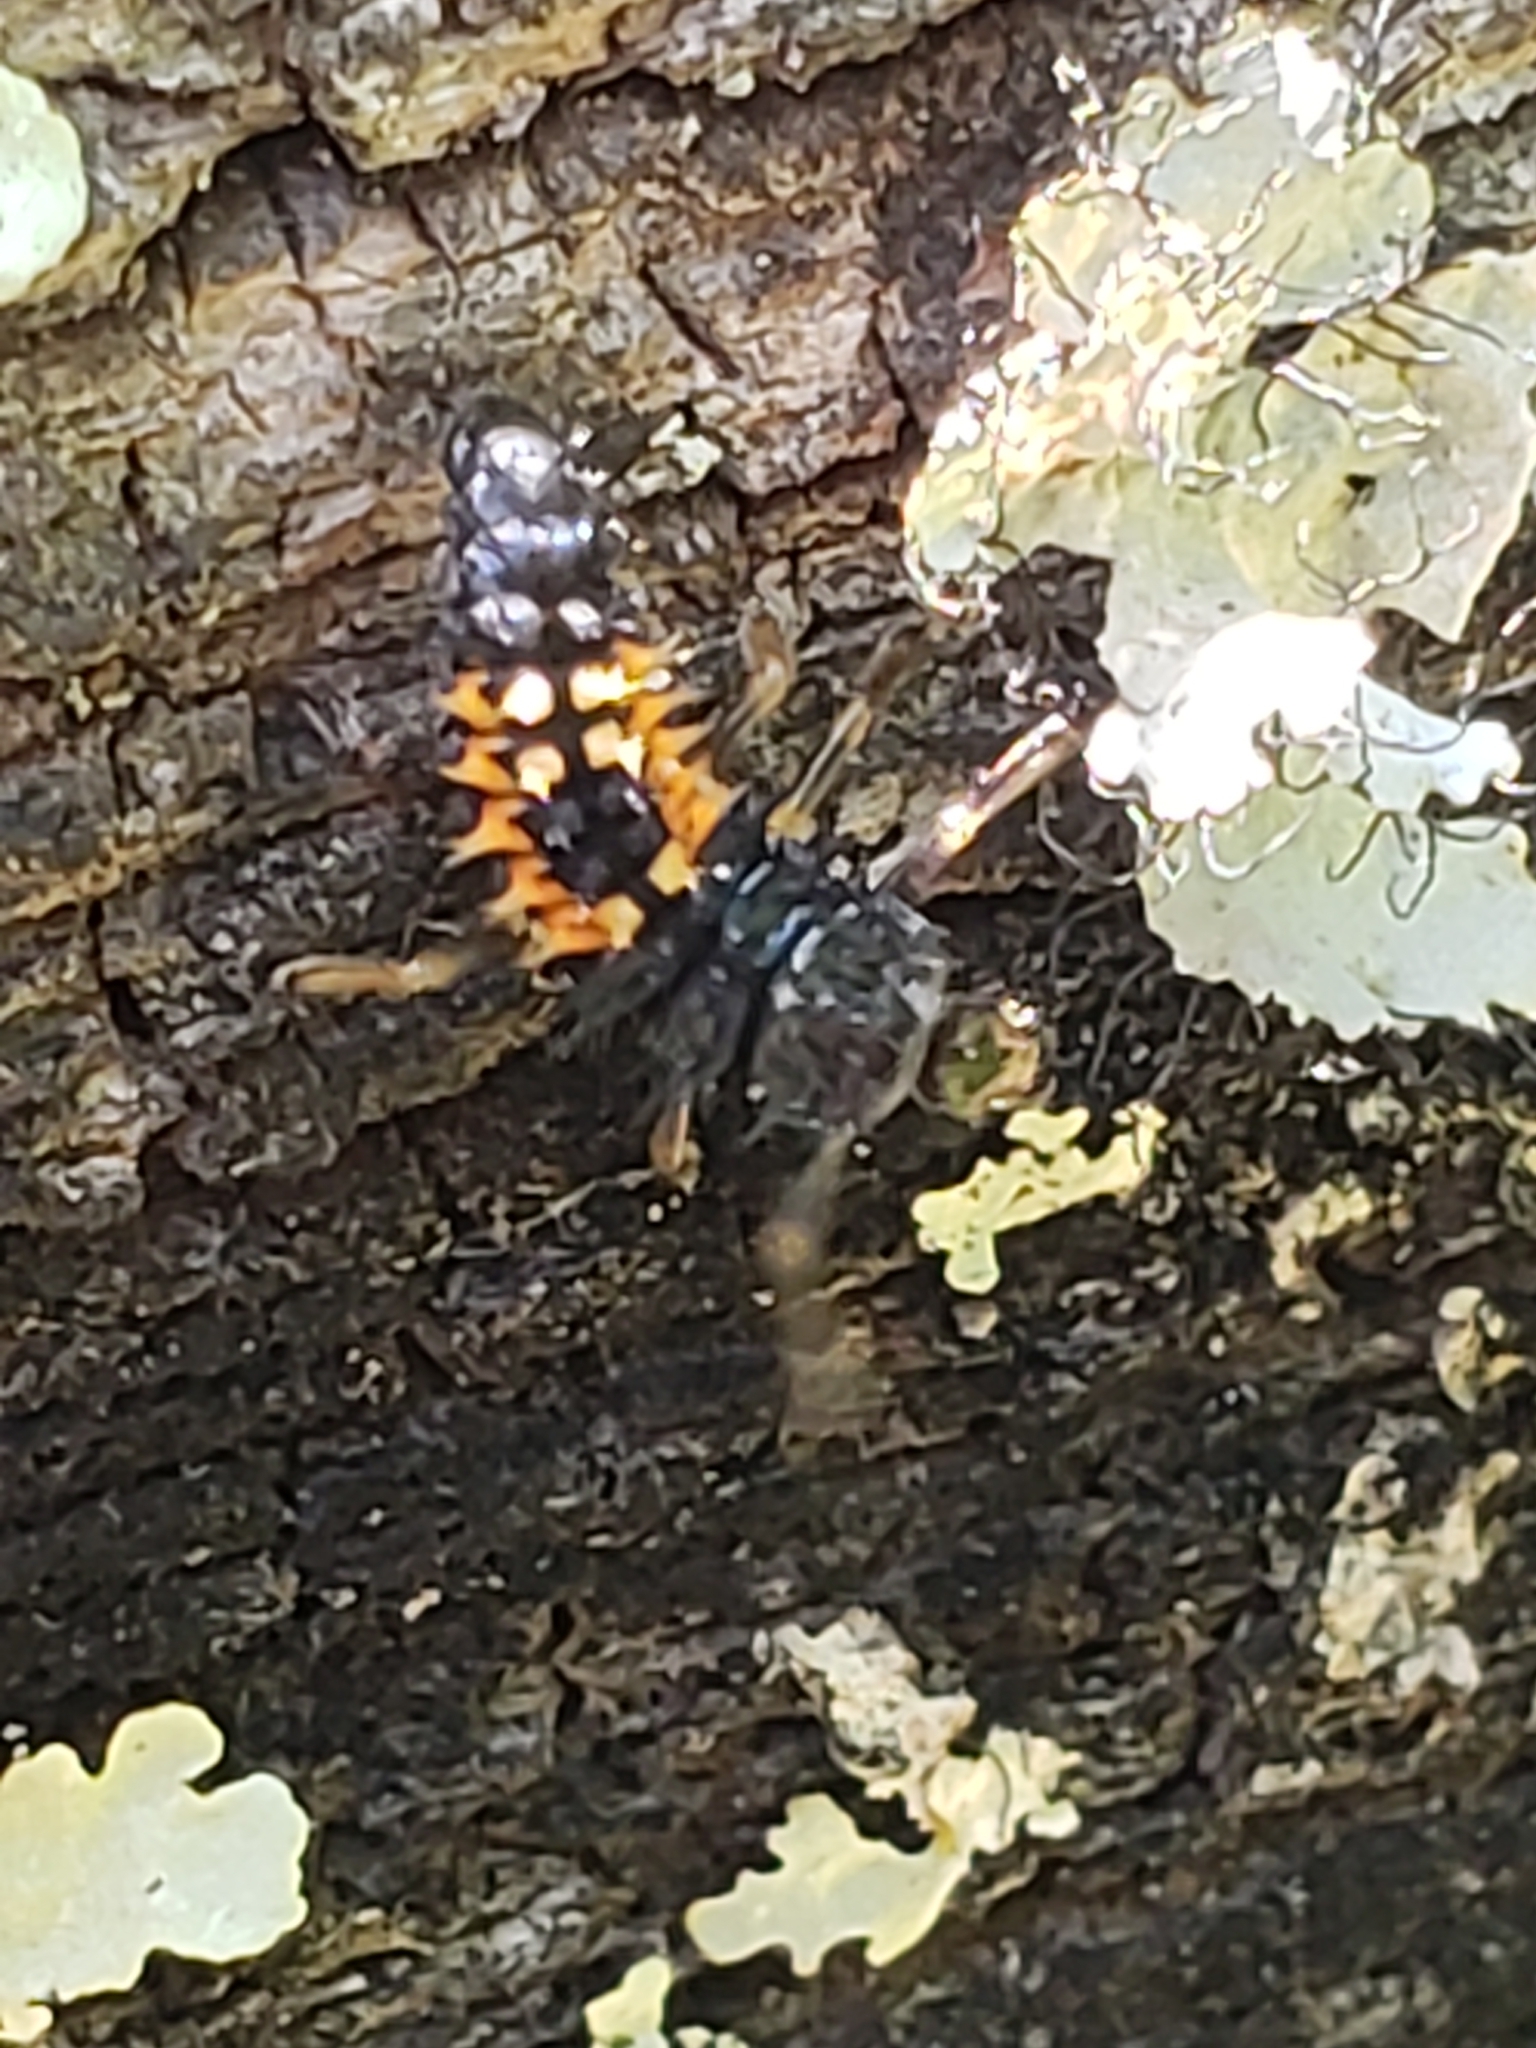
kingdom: Animalia
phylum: Arthropoda
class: Insecta
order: Coleoptera
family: Coccinellidae
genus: Harmonia
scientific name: Harmonia axyridis
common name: Harlequin ladybird
